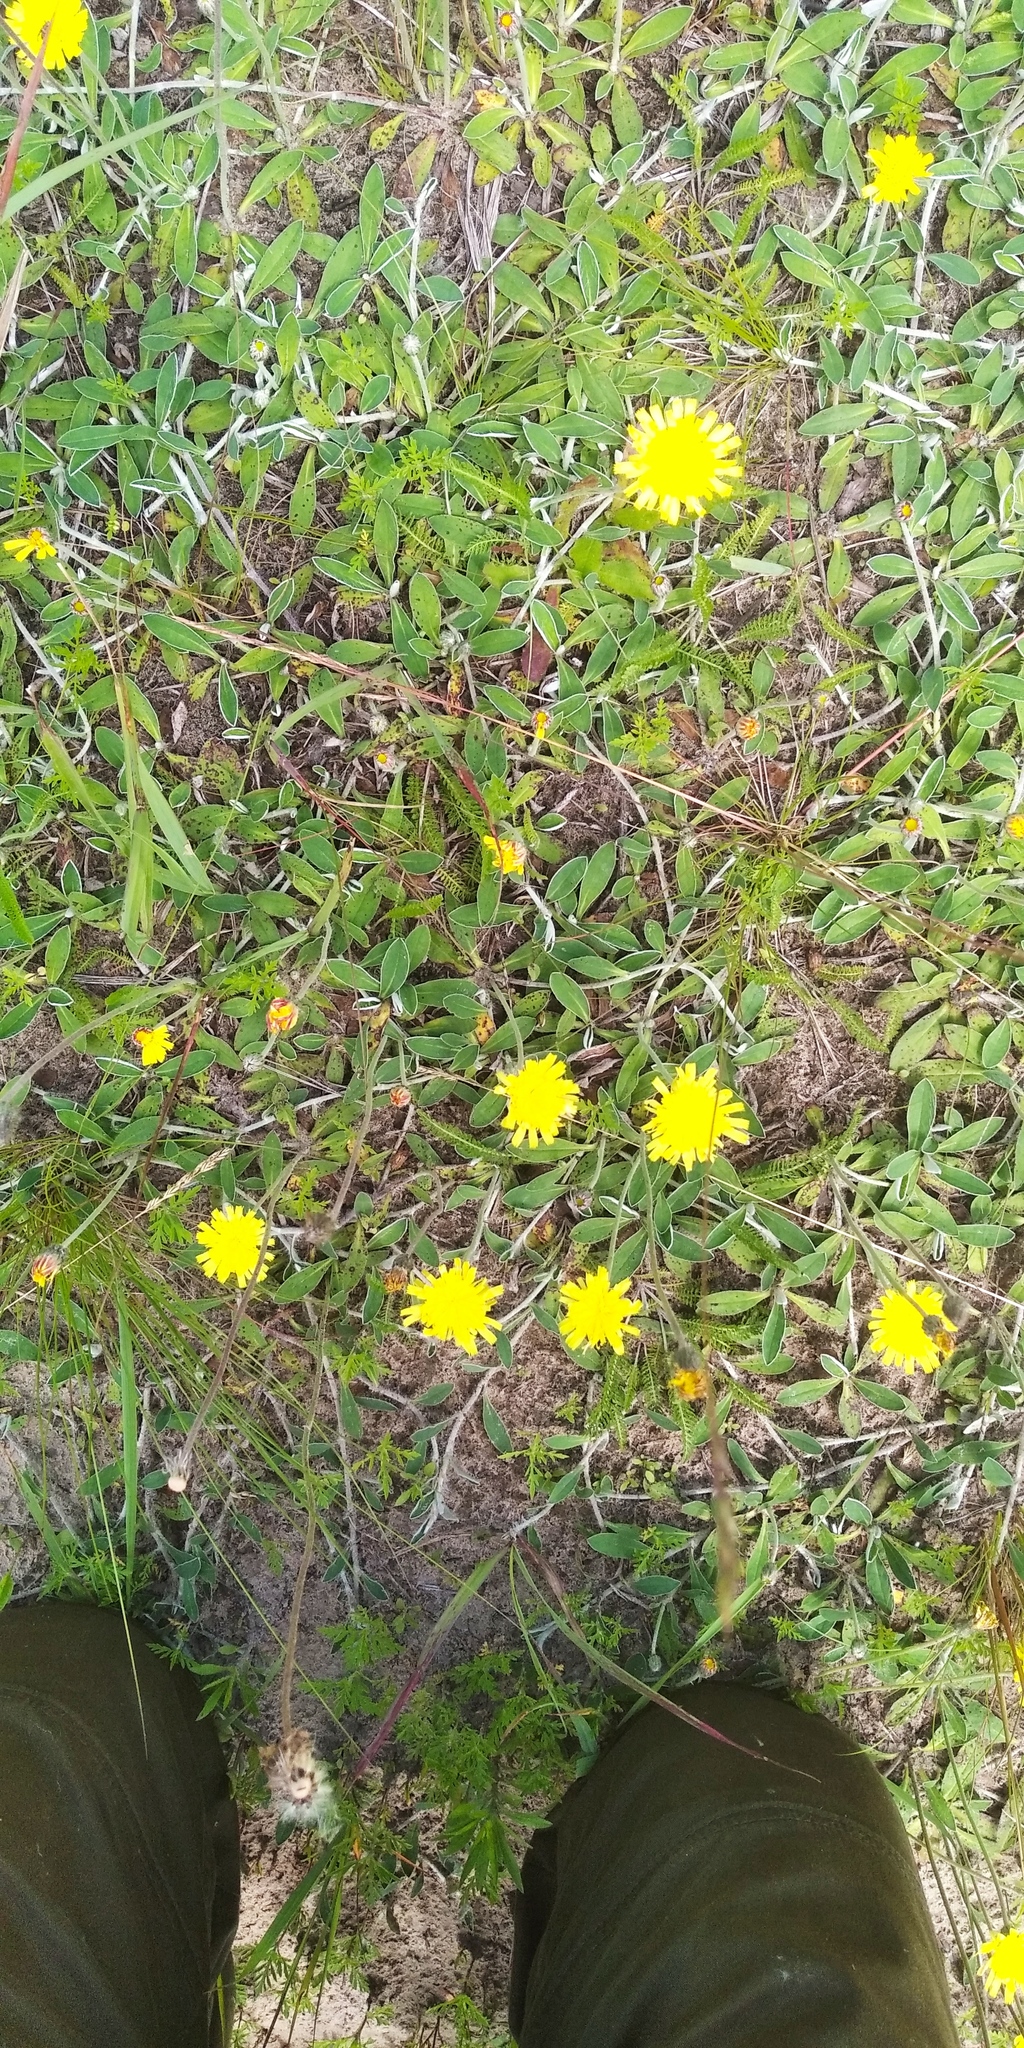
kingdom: Plantae
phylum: Tracheophyta
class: Magnoliopsida
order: Asterales
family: Asteraceae
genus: Pilosella
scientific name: Pilosella officinarum
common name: Mouse-ear hawkweed
